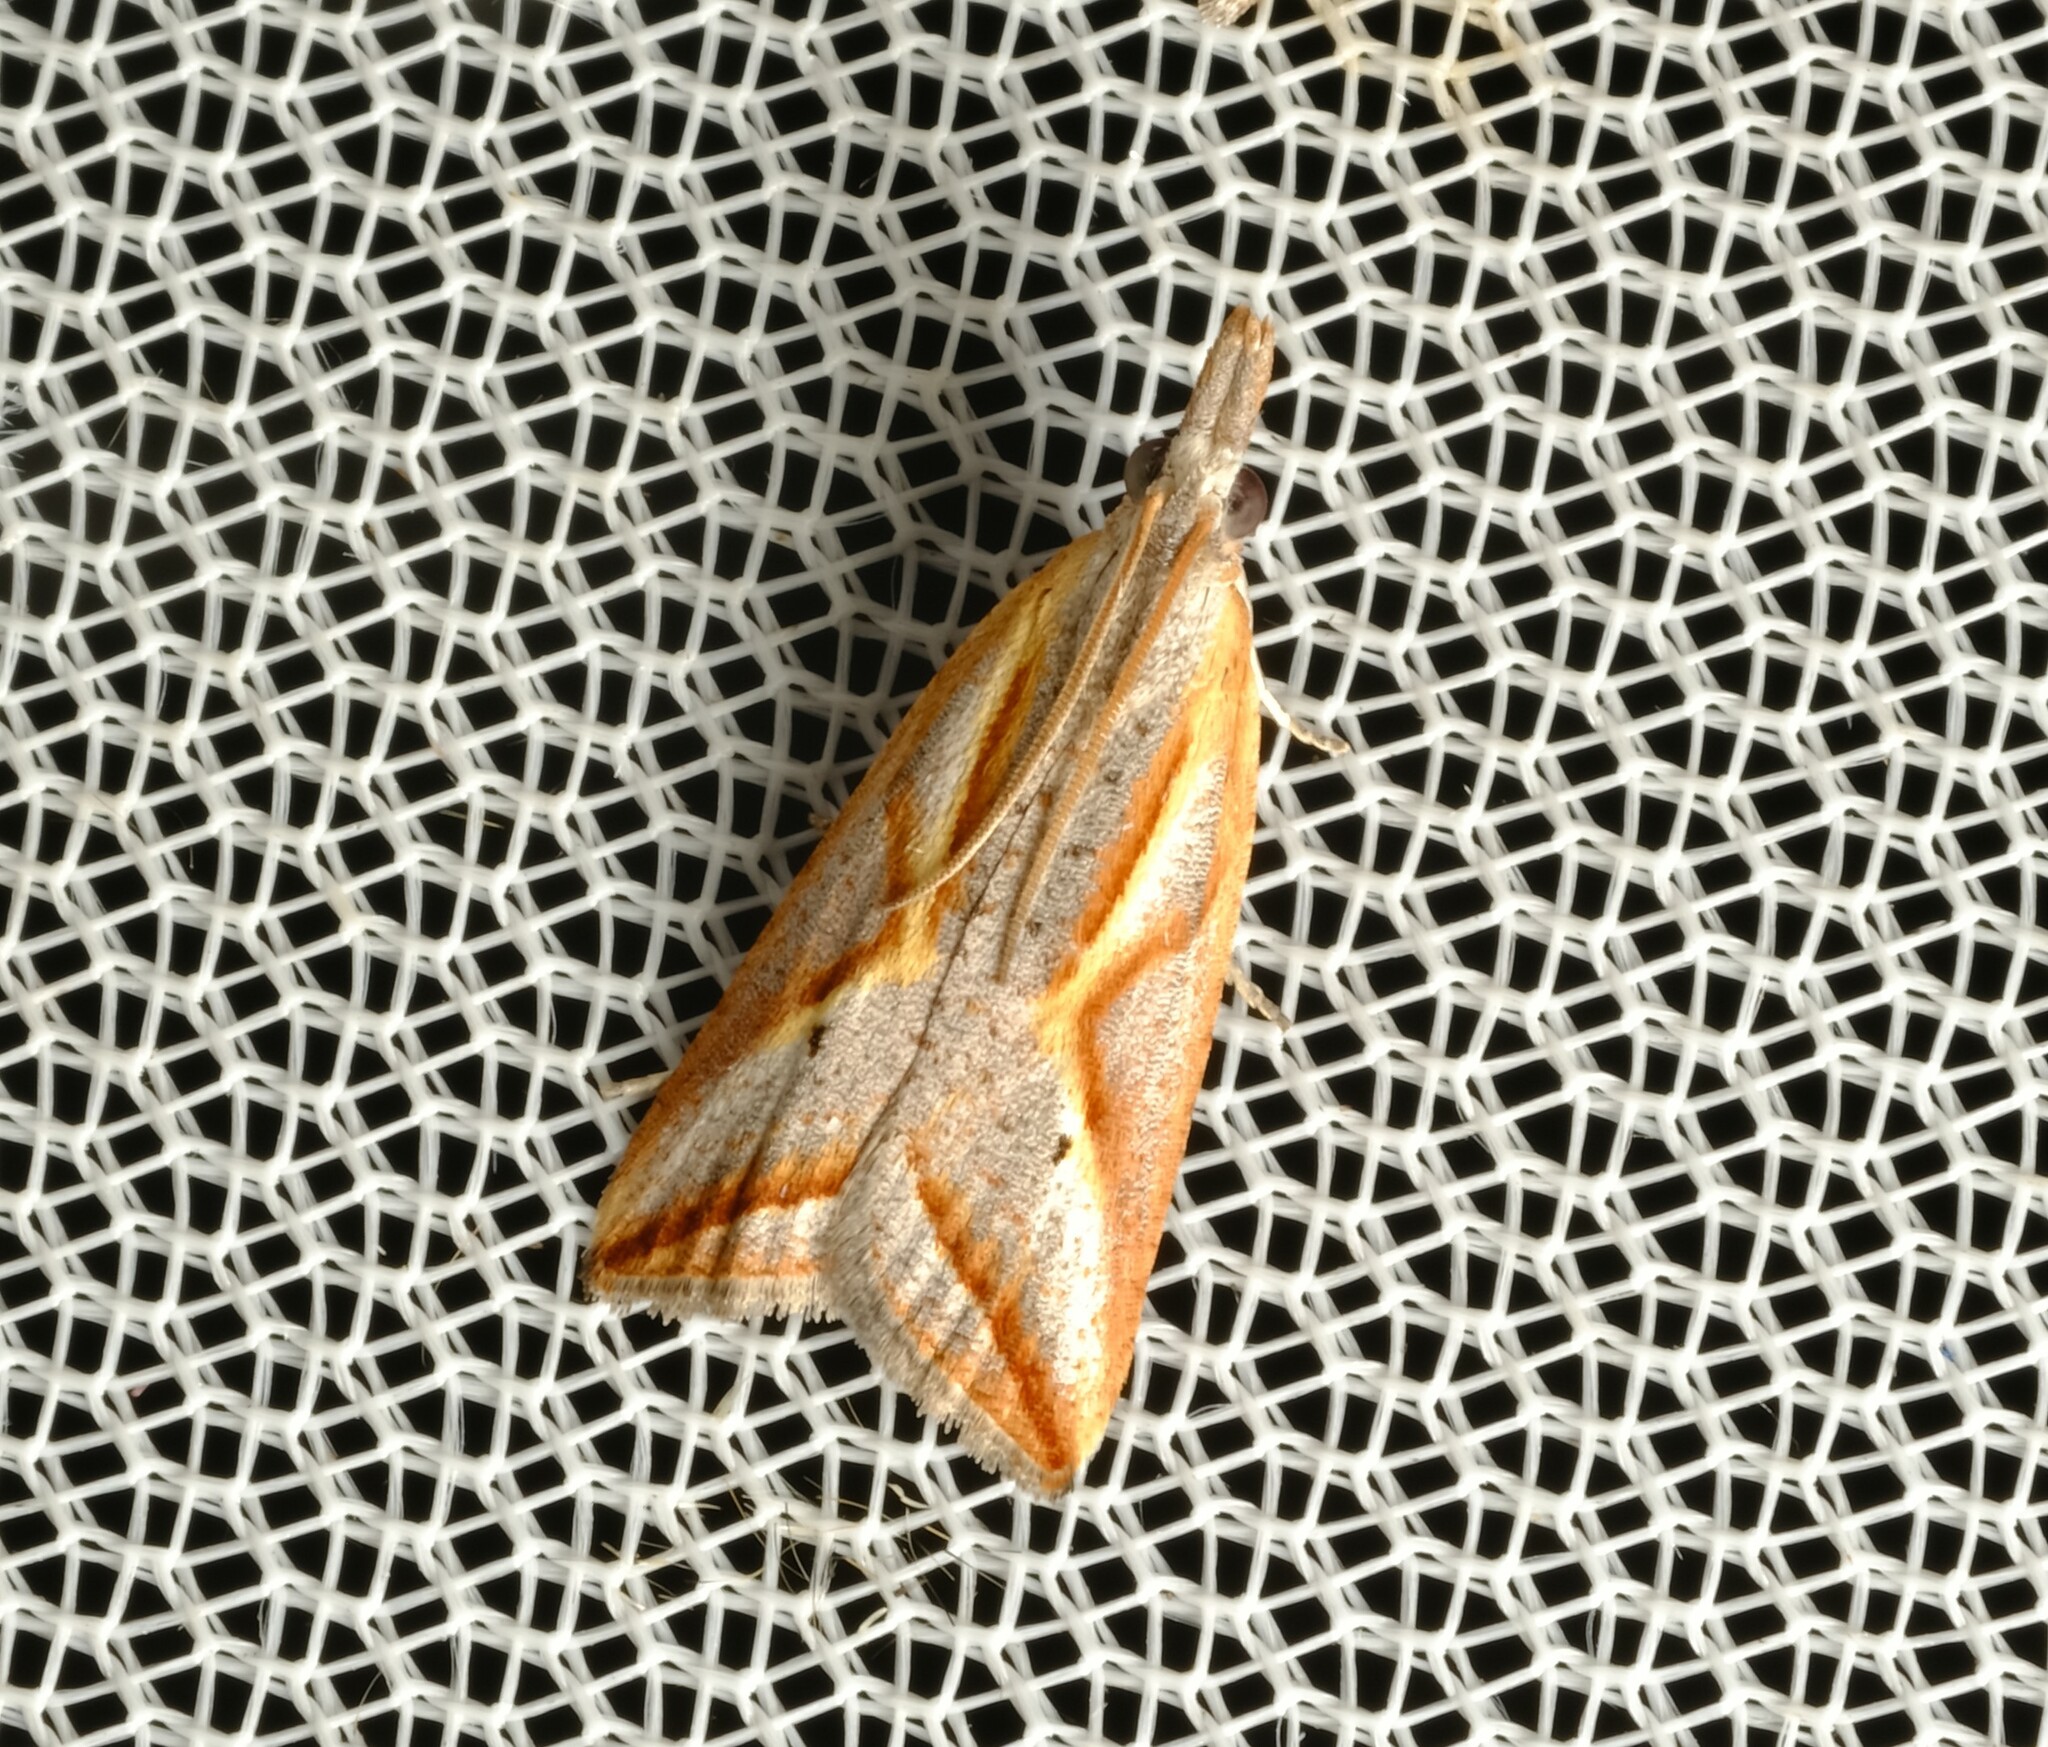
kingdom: Animalia
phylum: Arthropoda
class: Insecta
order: Lepidoptera
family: Tortricidae
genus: Arotrophora
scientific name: Arotrophora arcuatalis
